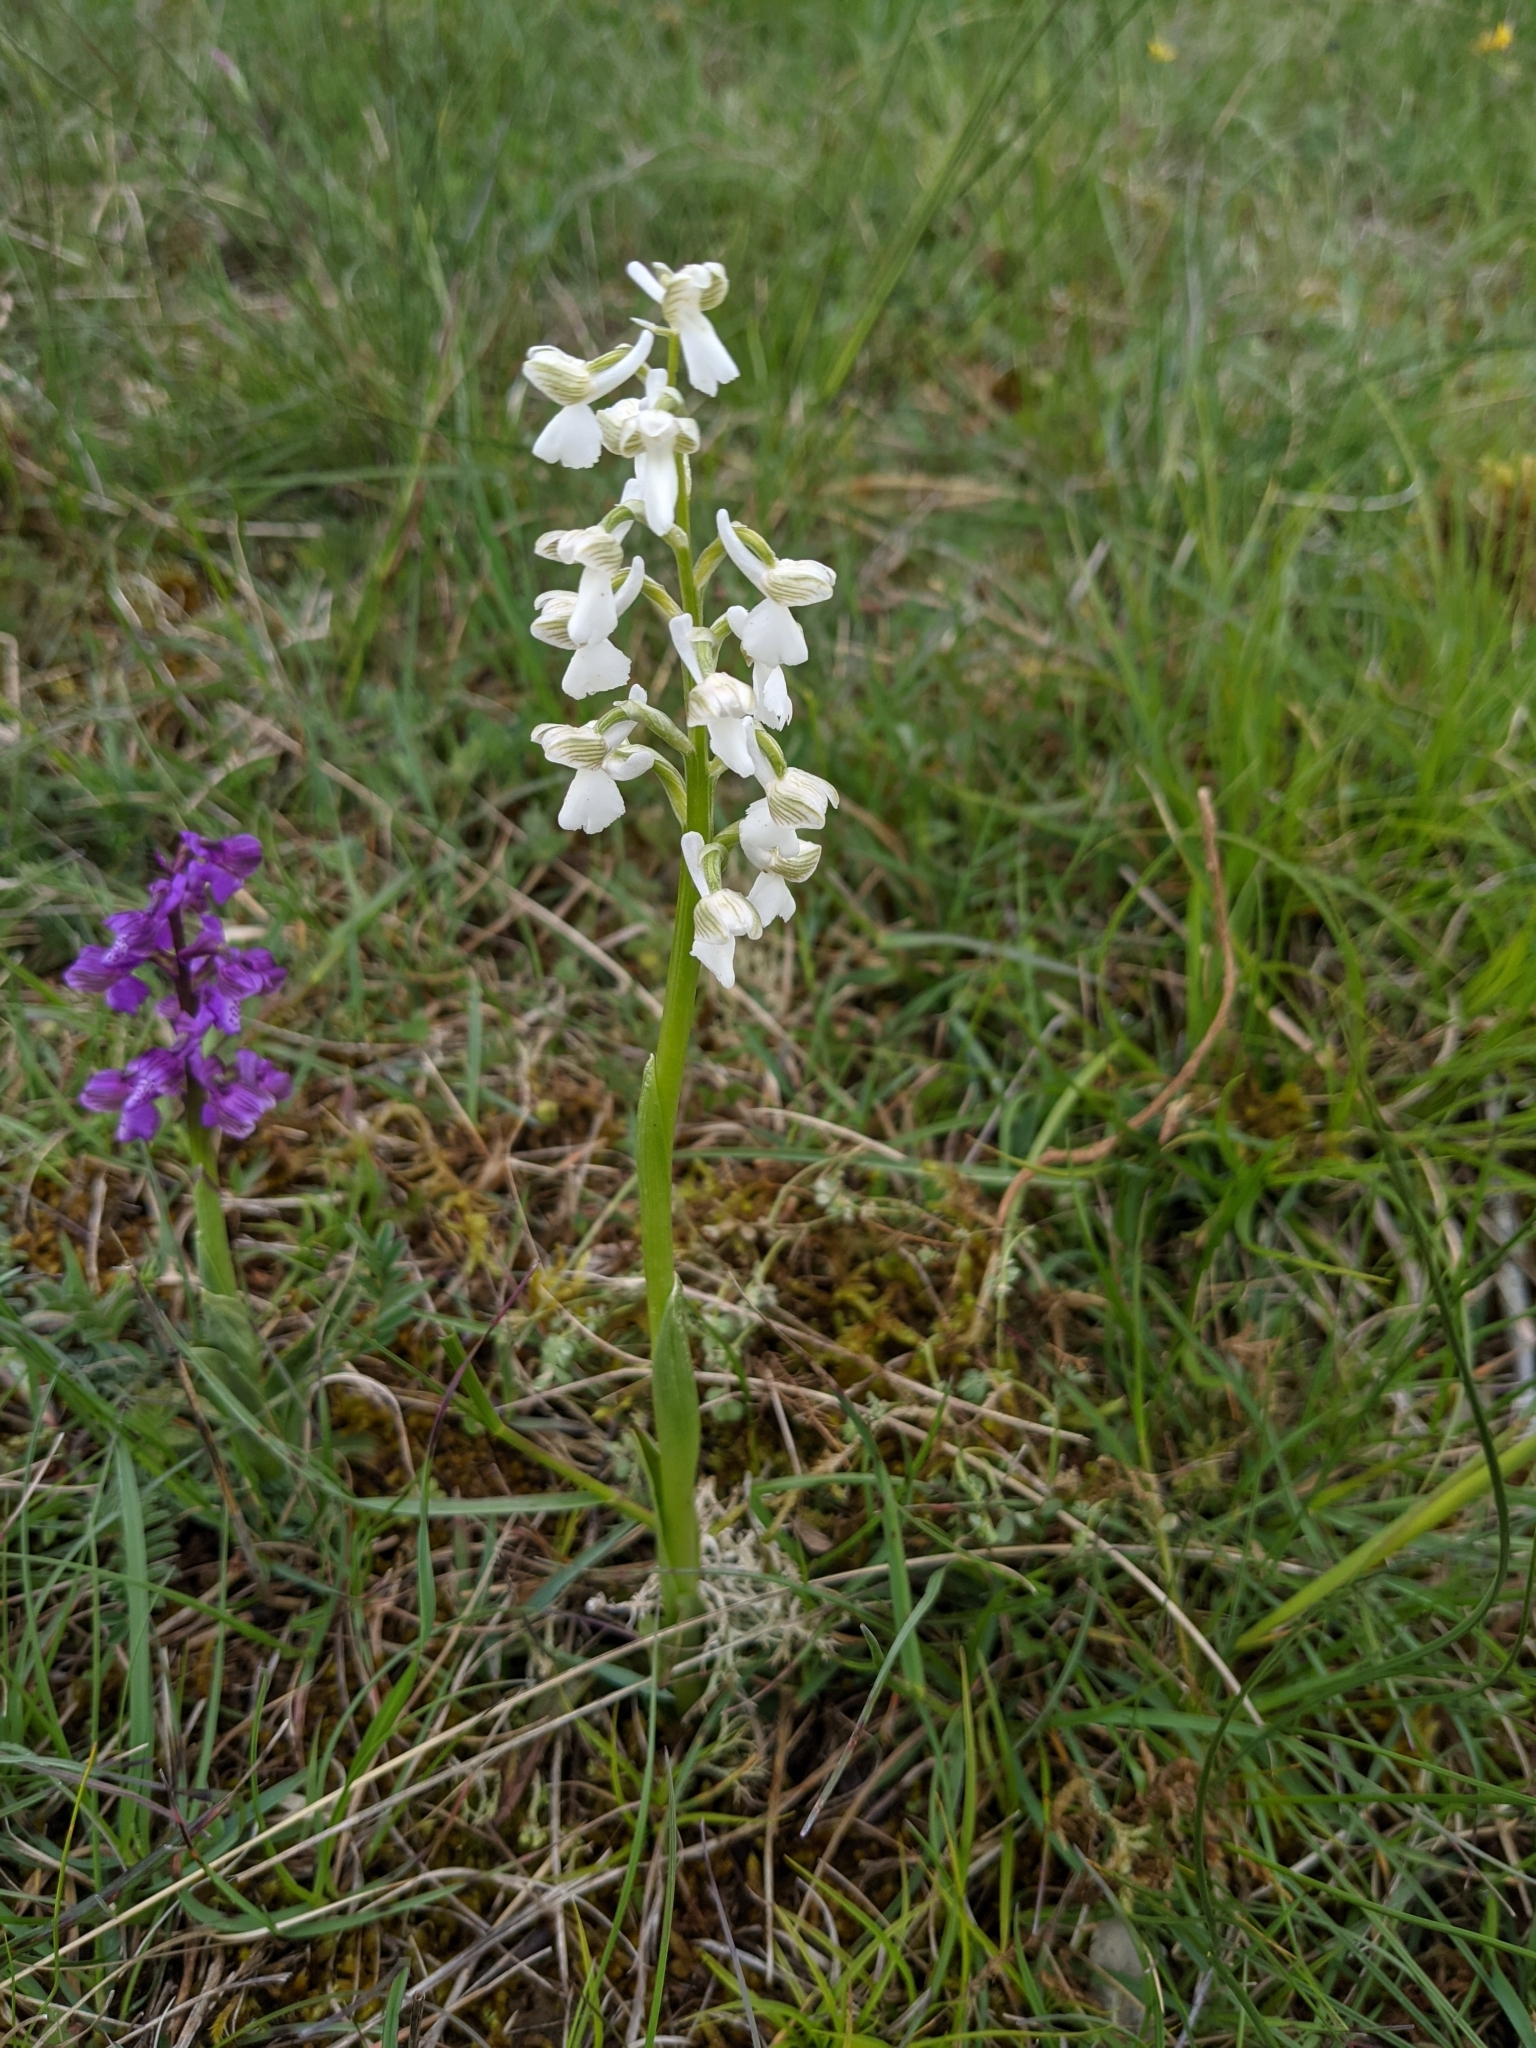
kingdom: Plantae
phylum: Tracheophyta
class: Liliopsida
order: Asparagales
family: Orchidaceae
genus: Anacamptis
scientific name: Anacamptis morio
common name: Green-winged orchid
